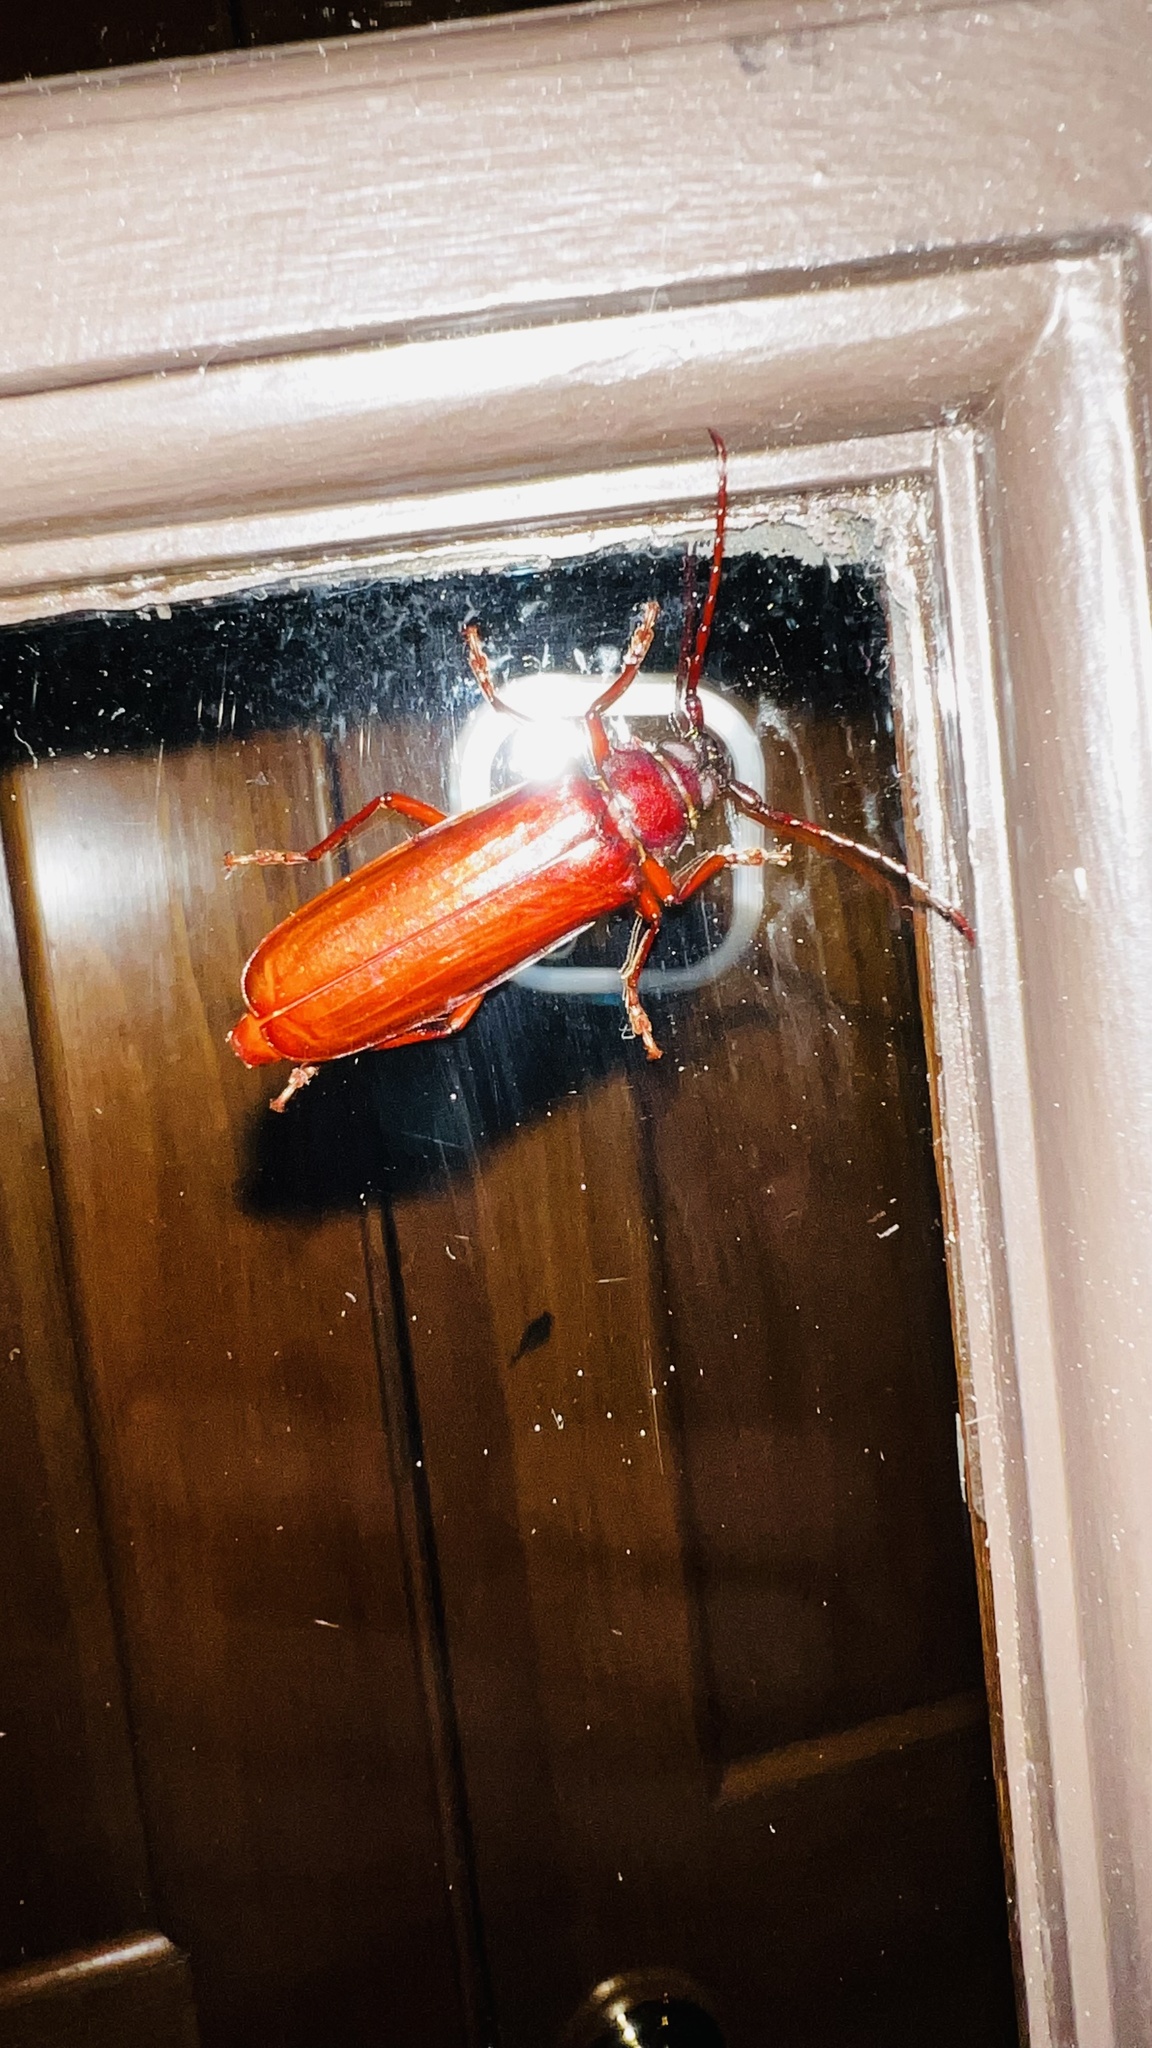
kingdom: Animalia
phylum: Arthropoda
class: Insecta
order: Coleoptera
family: Cerambycidae
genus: Orthosoma
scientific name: Orthosoma brunneum
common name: Brown prionid beetle
